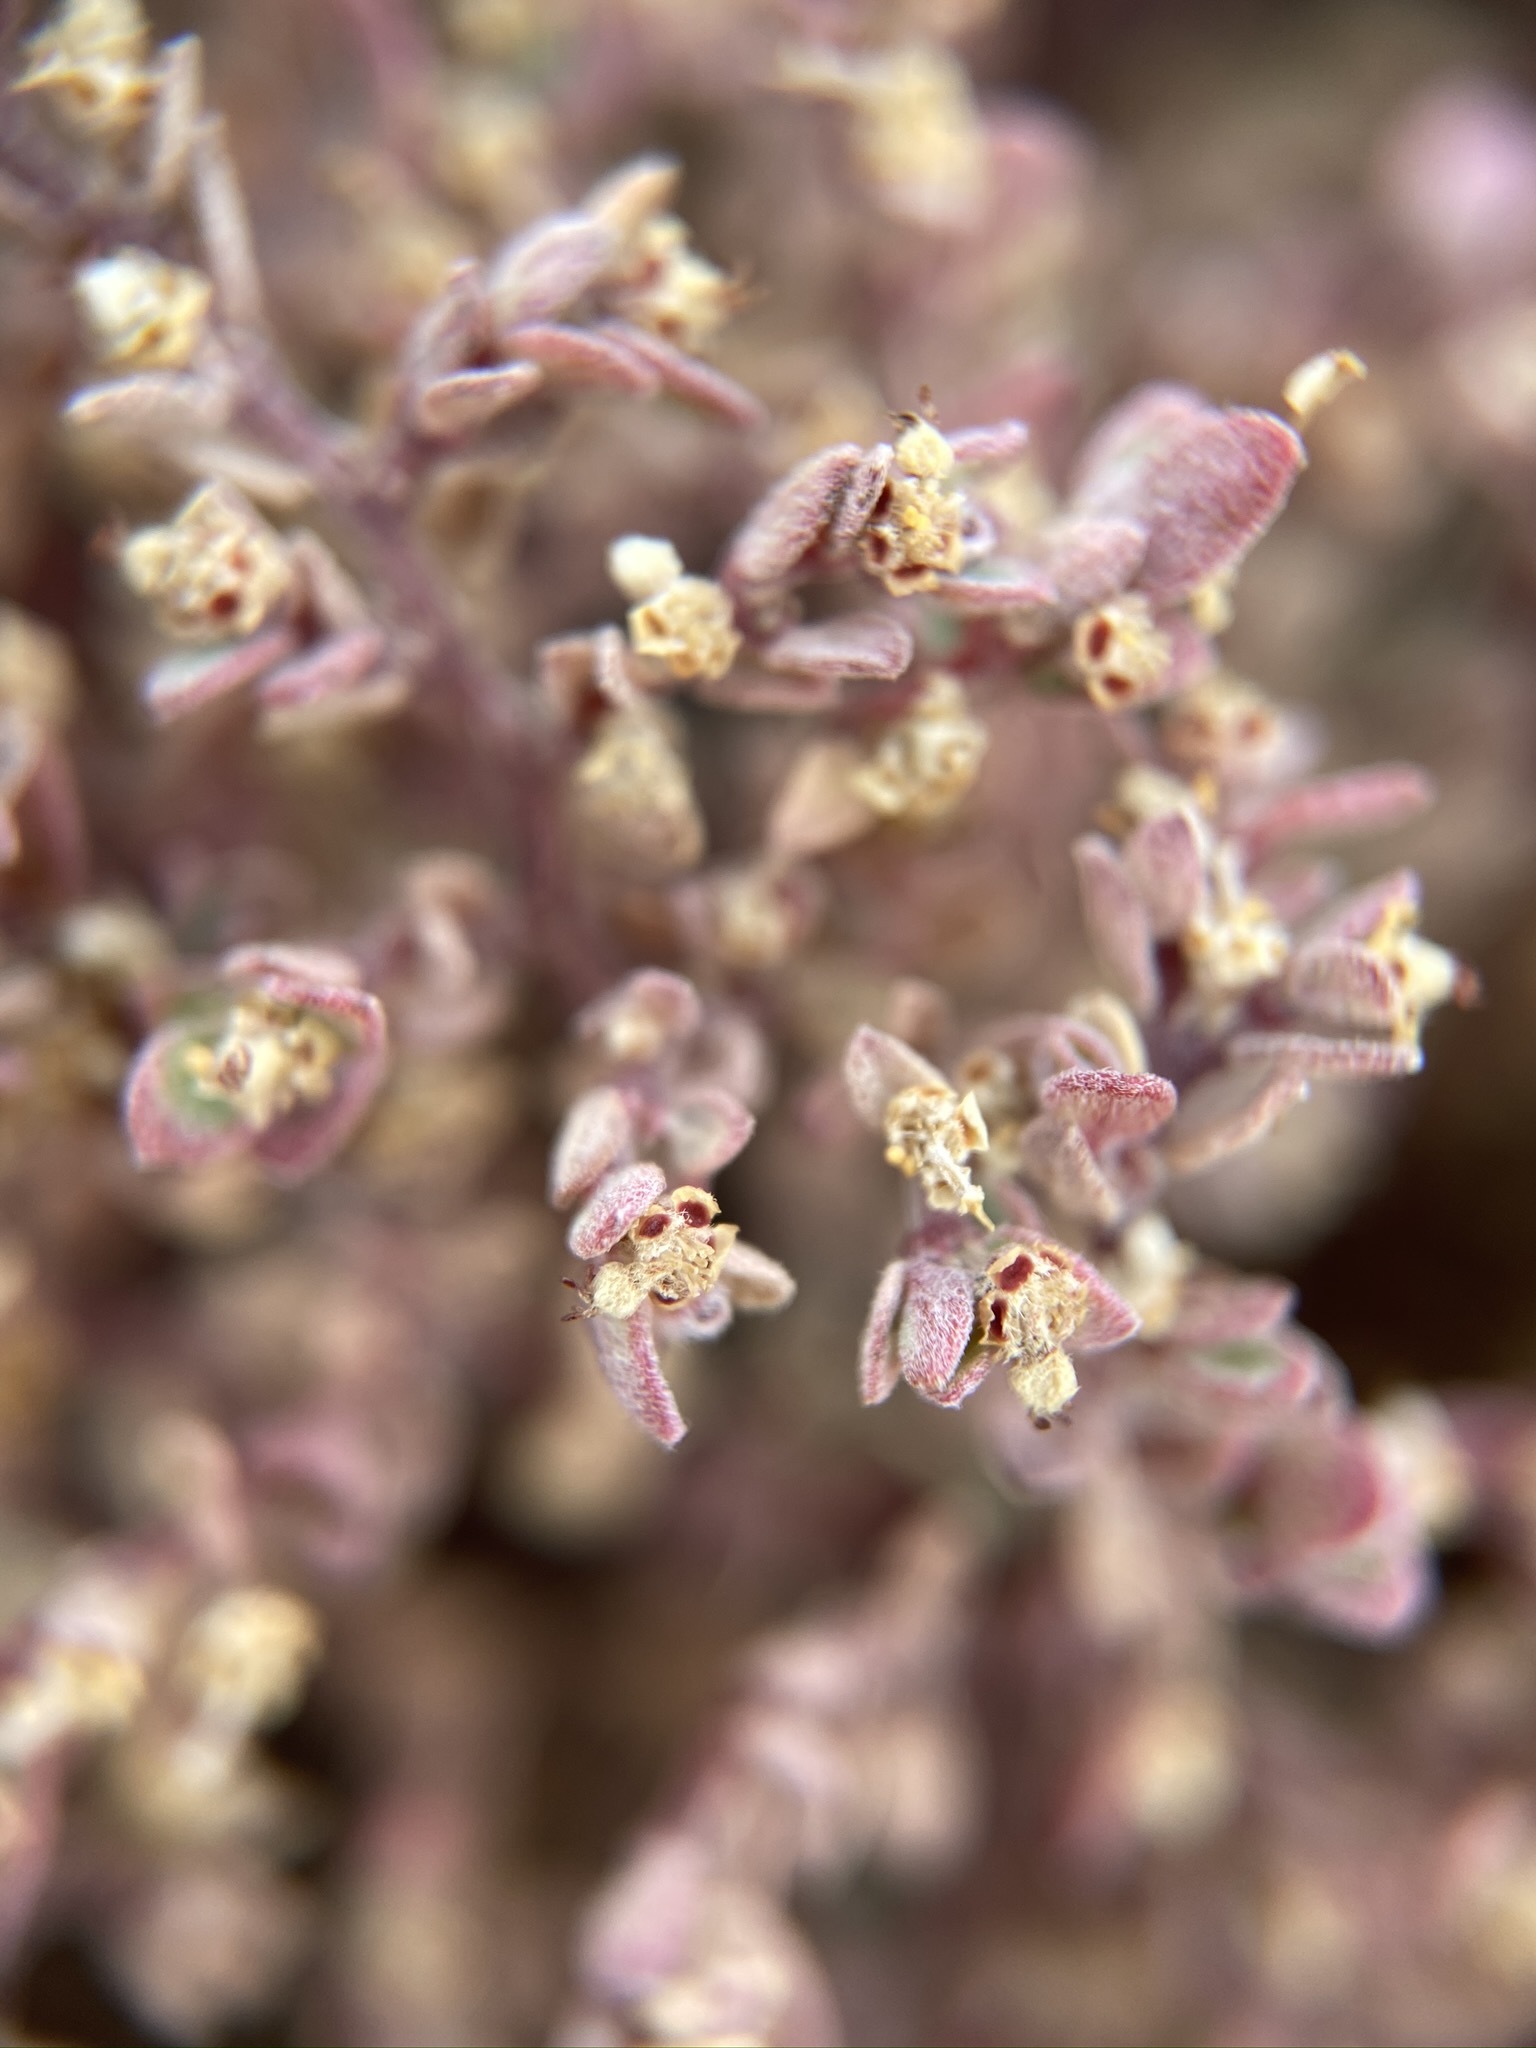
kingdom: Plantae
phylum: Tracheophyta
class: Magnoliopsida
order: Malpighiales
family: Euphorbiaceae
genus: Euphorbia
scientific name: Euphorbia melanadenia
